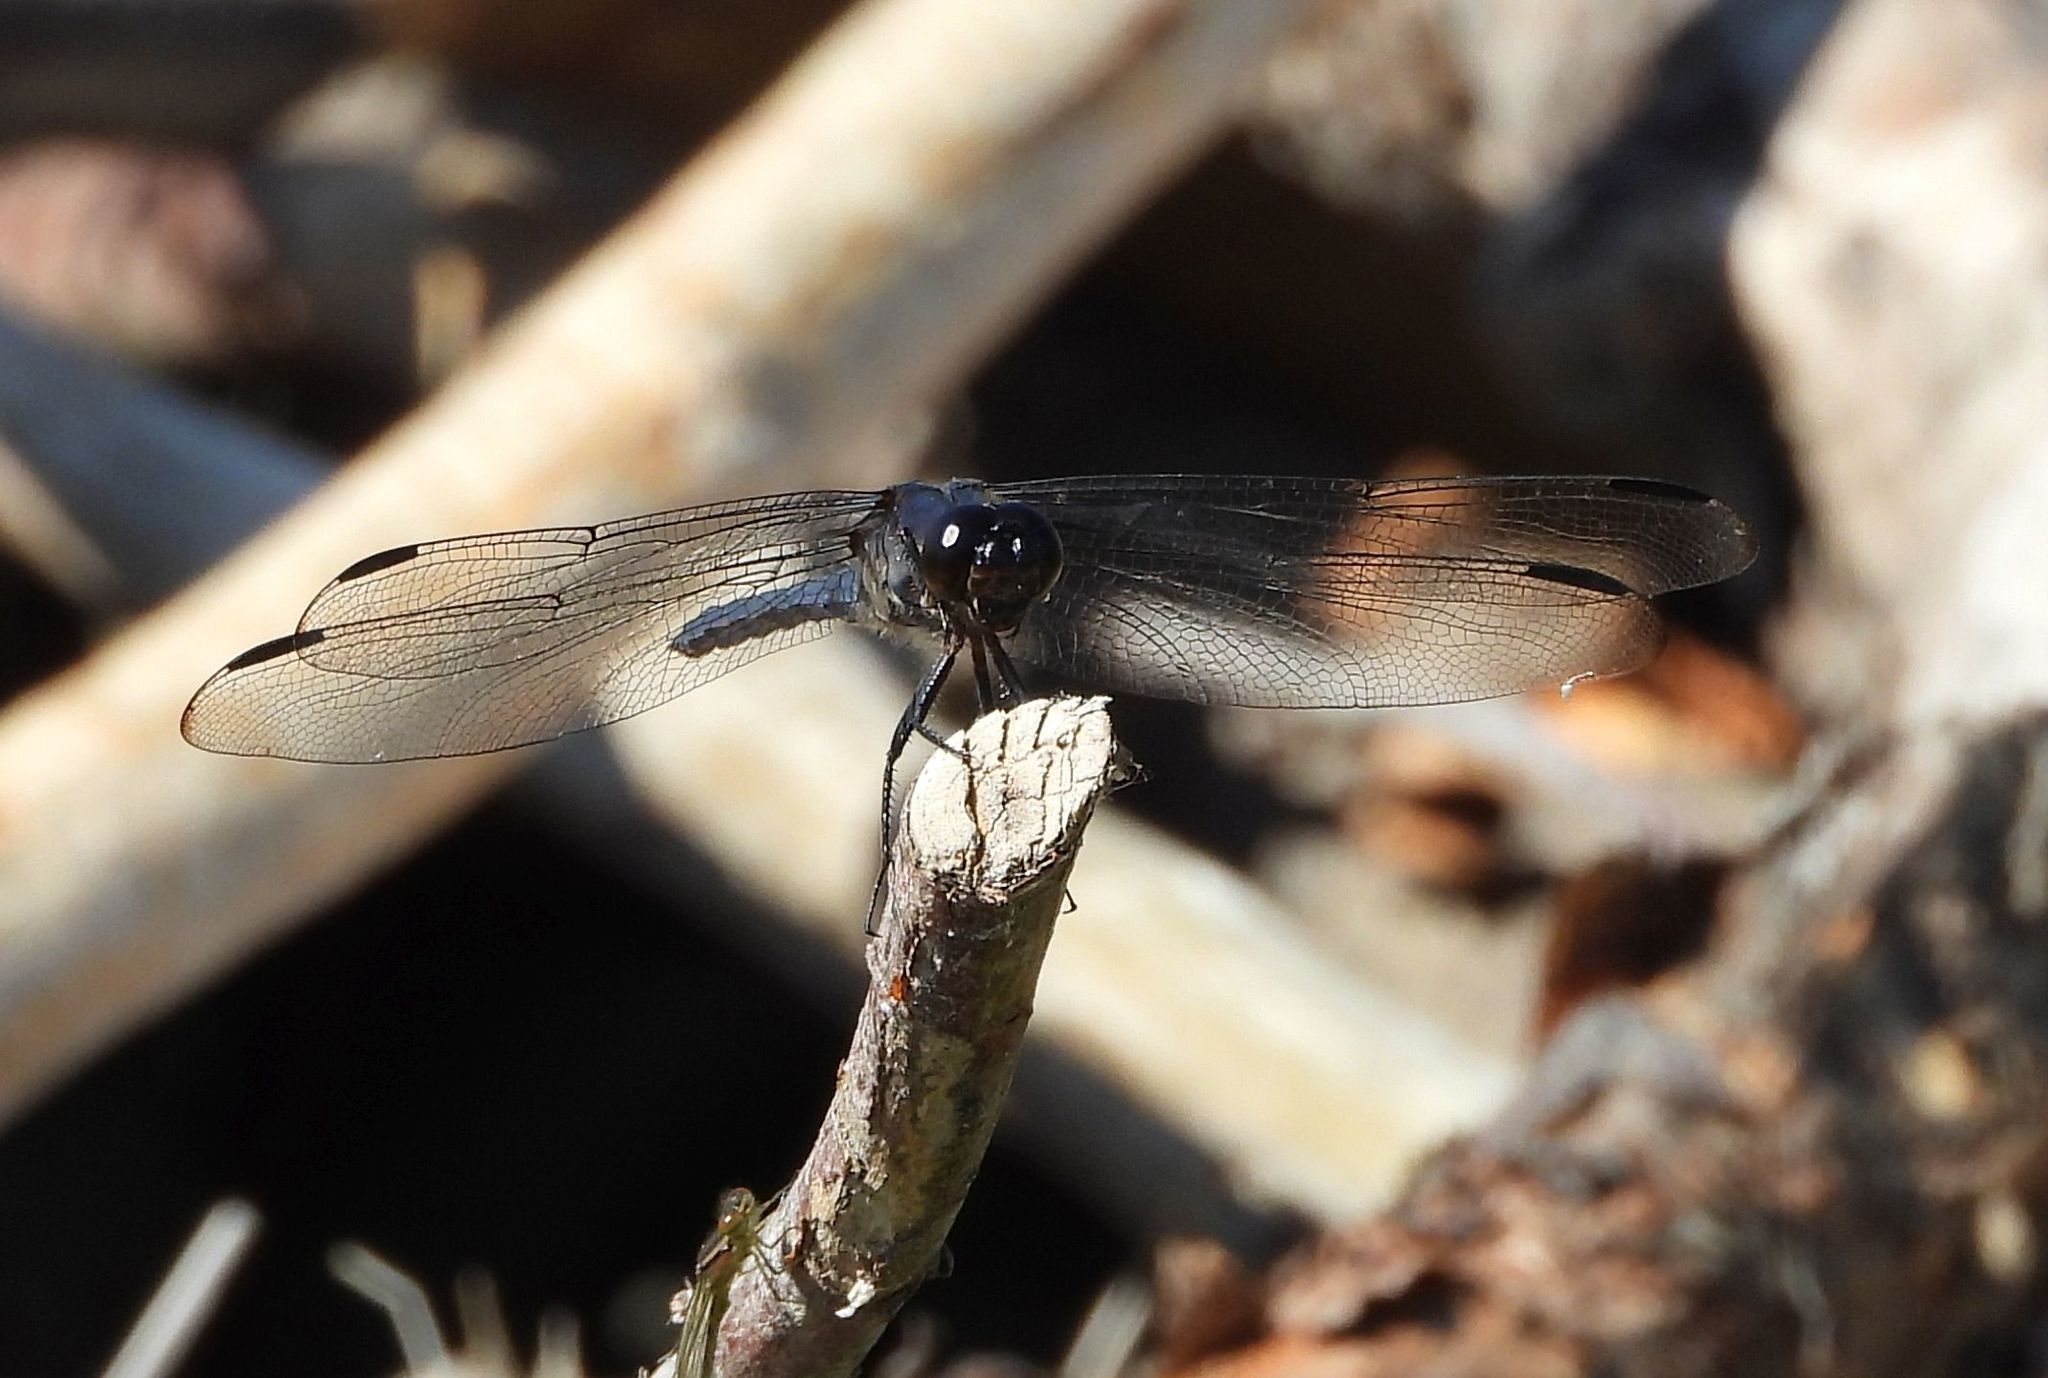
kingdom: Animalia
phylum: Arthropoda
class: Insecta
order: Odonata
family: Libellulidae
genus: Libellula
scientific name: Libellula incesta
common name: Slaty skimmer
